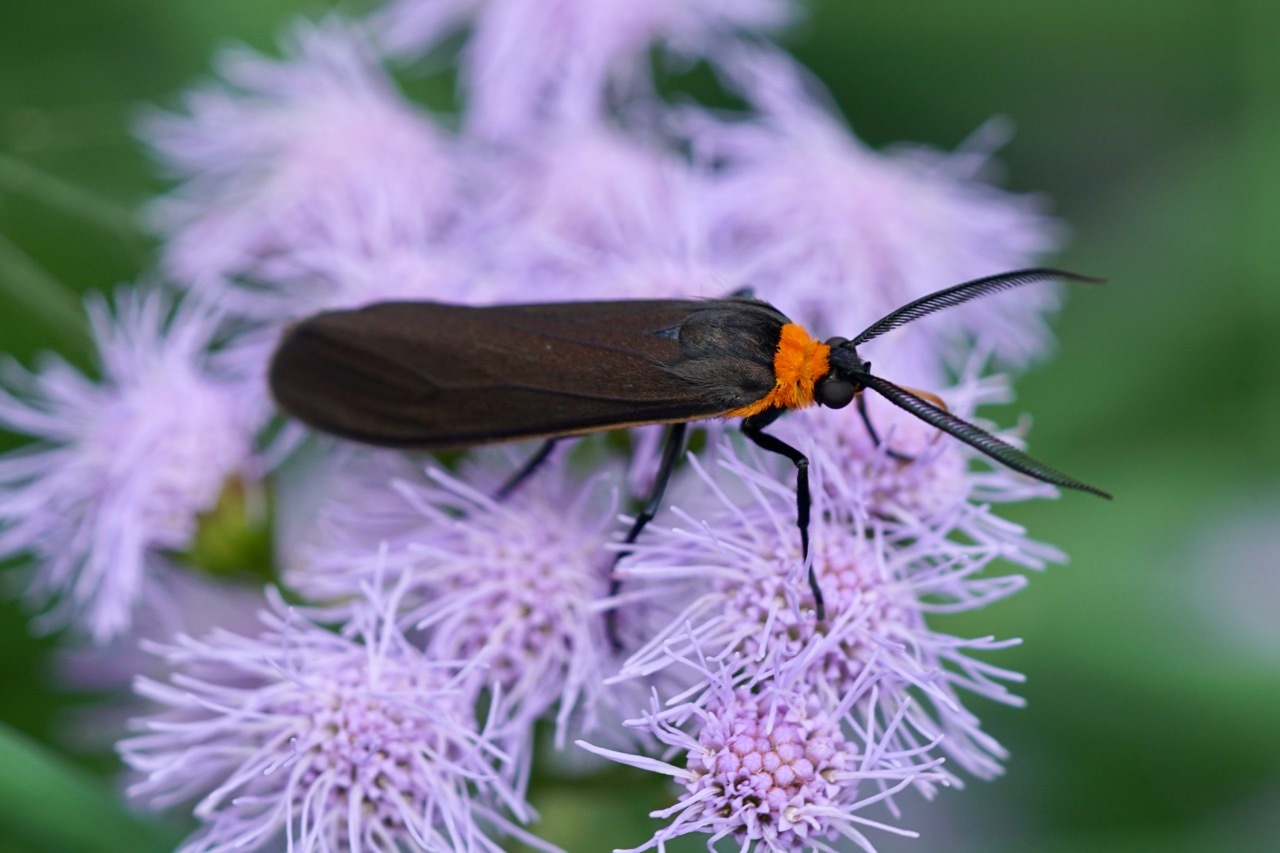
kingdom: Animalia
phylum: Arthropoda
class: Insecta
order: Lepidoptera
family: Erebidae
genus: Cisseps
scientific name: Cisseps fulvicollis
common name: Yellow-collared scape moth
